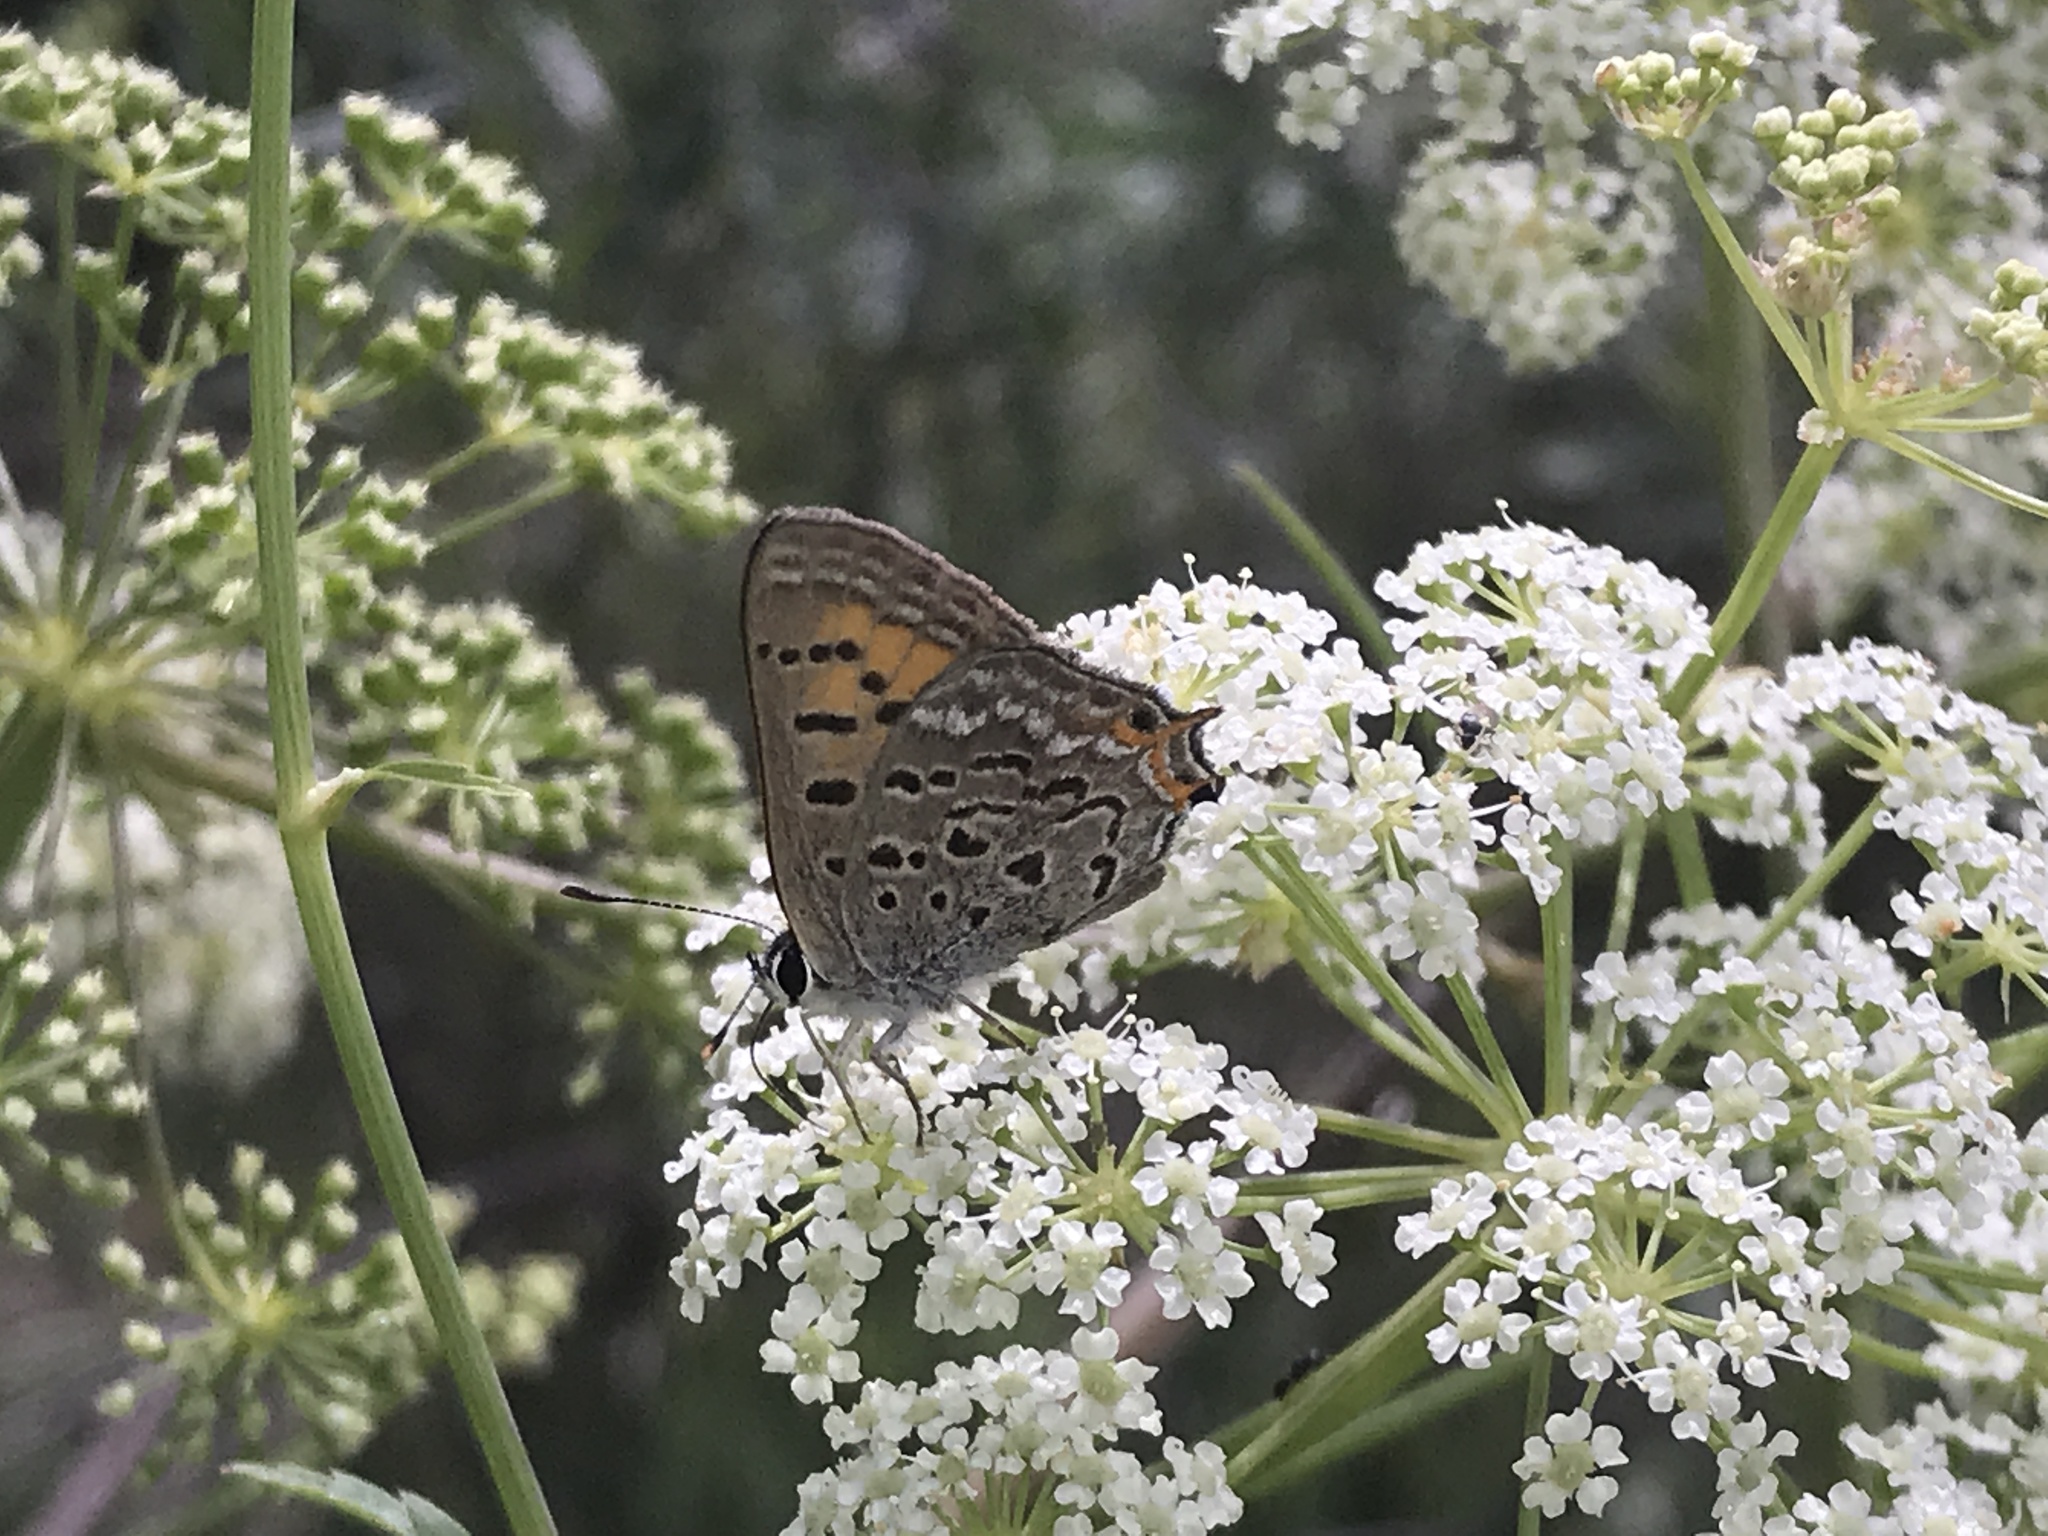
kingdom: Animalia
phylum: Arthropoda
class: Insecta
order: Lepidoptera
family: Lycaenidae
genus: Tharsalea
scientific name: Tharsalea arota
